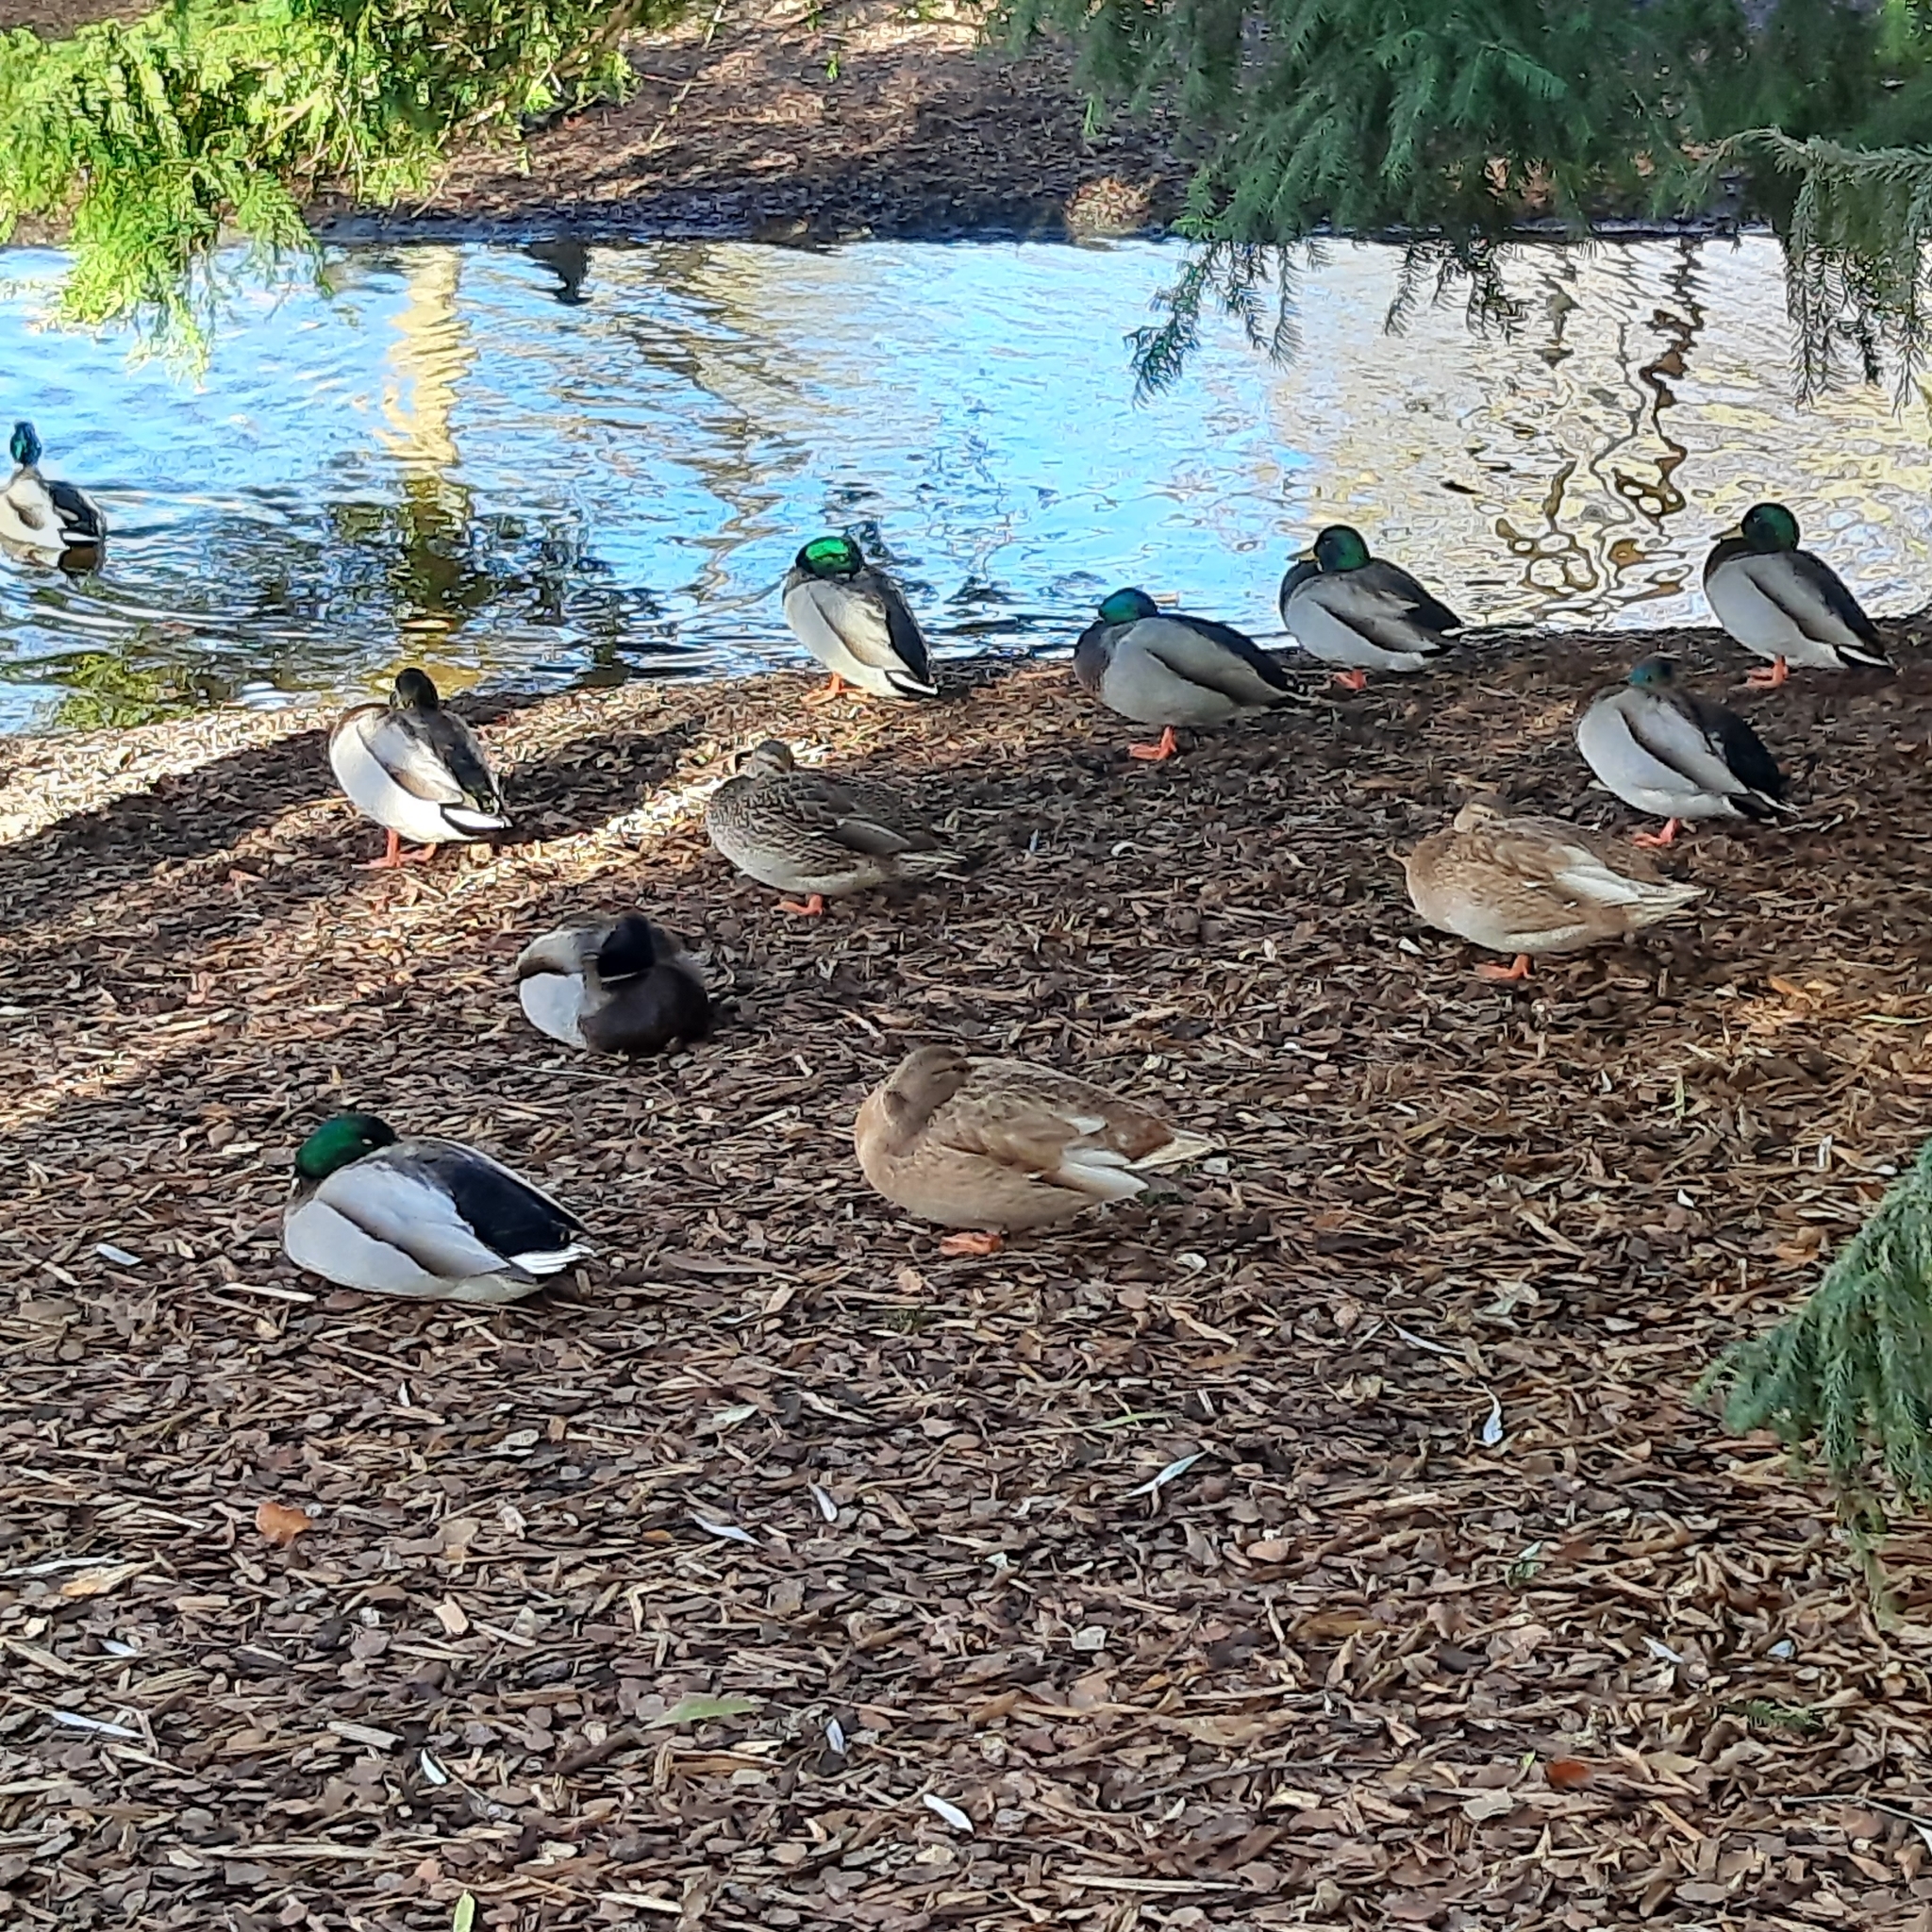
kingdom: Animalia
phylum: Chordata
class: Aves
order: Anseriformes
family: Anatidae
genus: Anas
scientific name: Anas platyrhynchos
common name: Mallard
